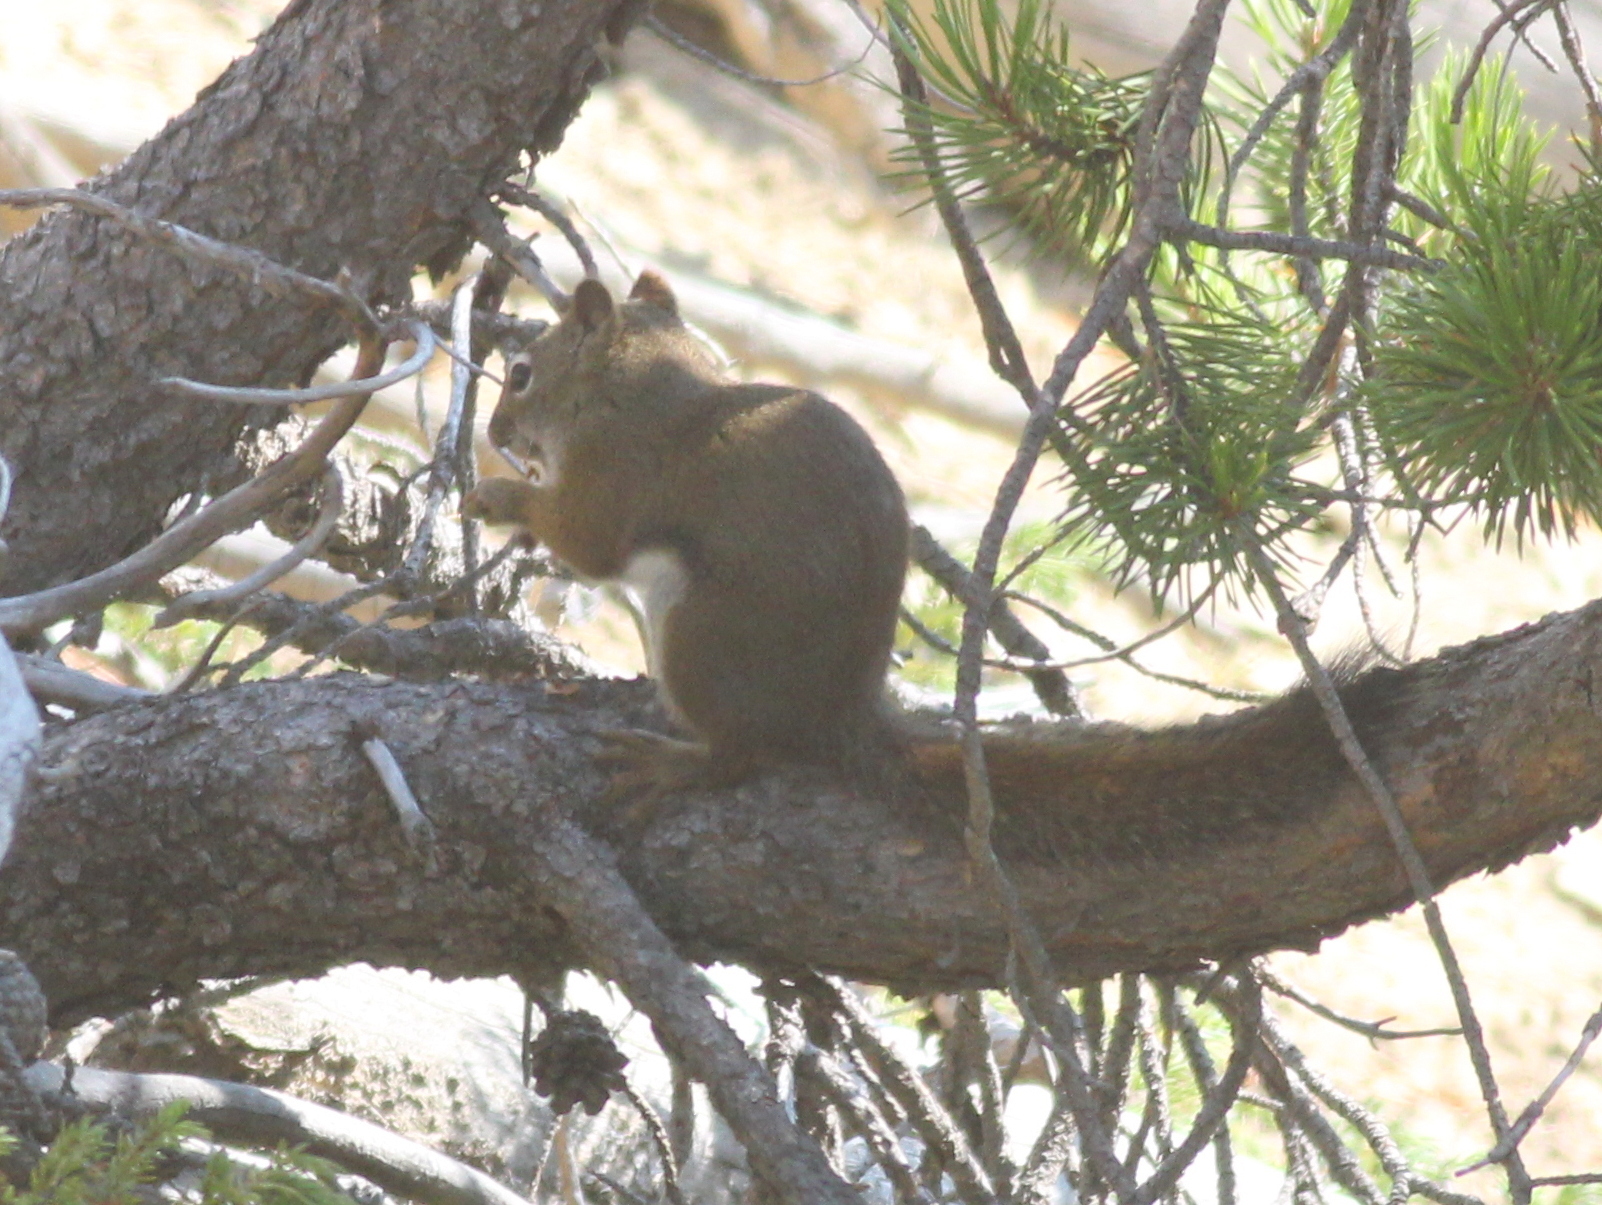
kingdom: Animalia
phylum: Chordata
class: Mammalia
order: Rodentia
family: Sciuridae
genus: Tamiasciurus
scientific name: Tamiasciurus hudsonicus
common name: Red squirrel
